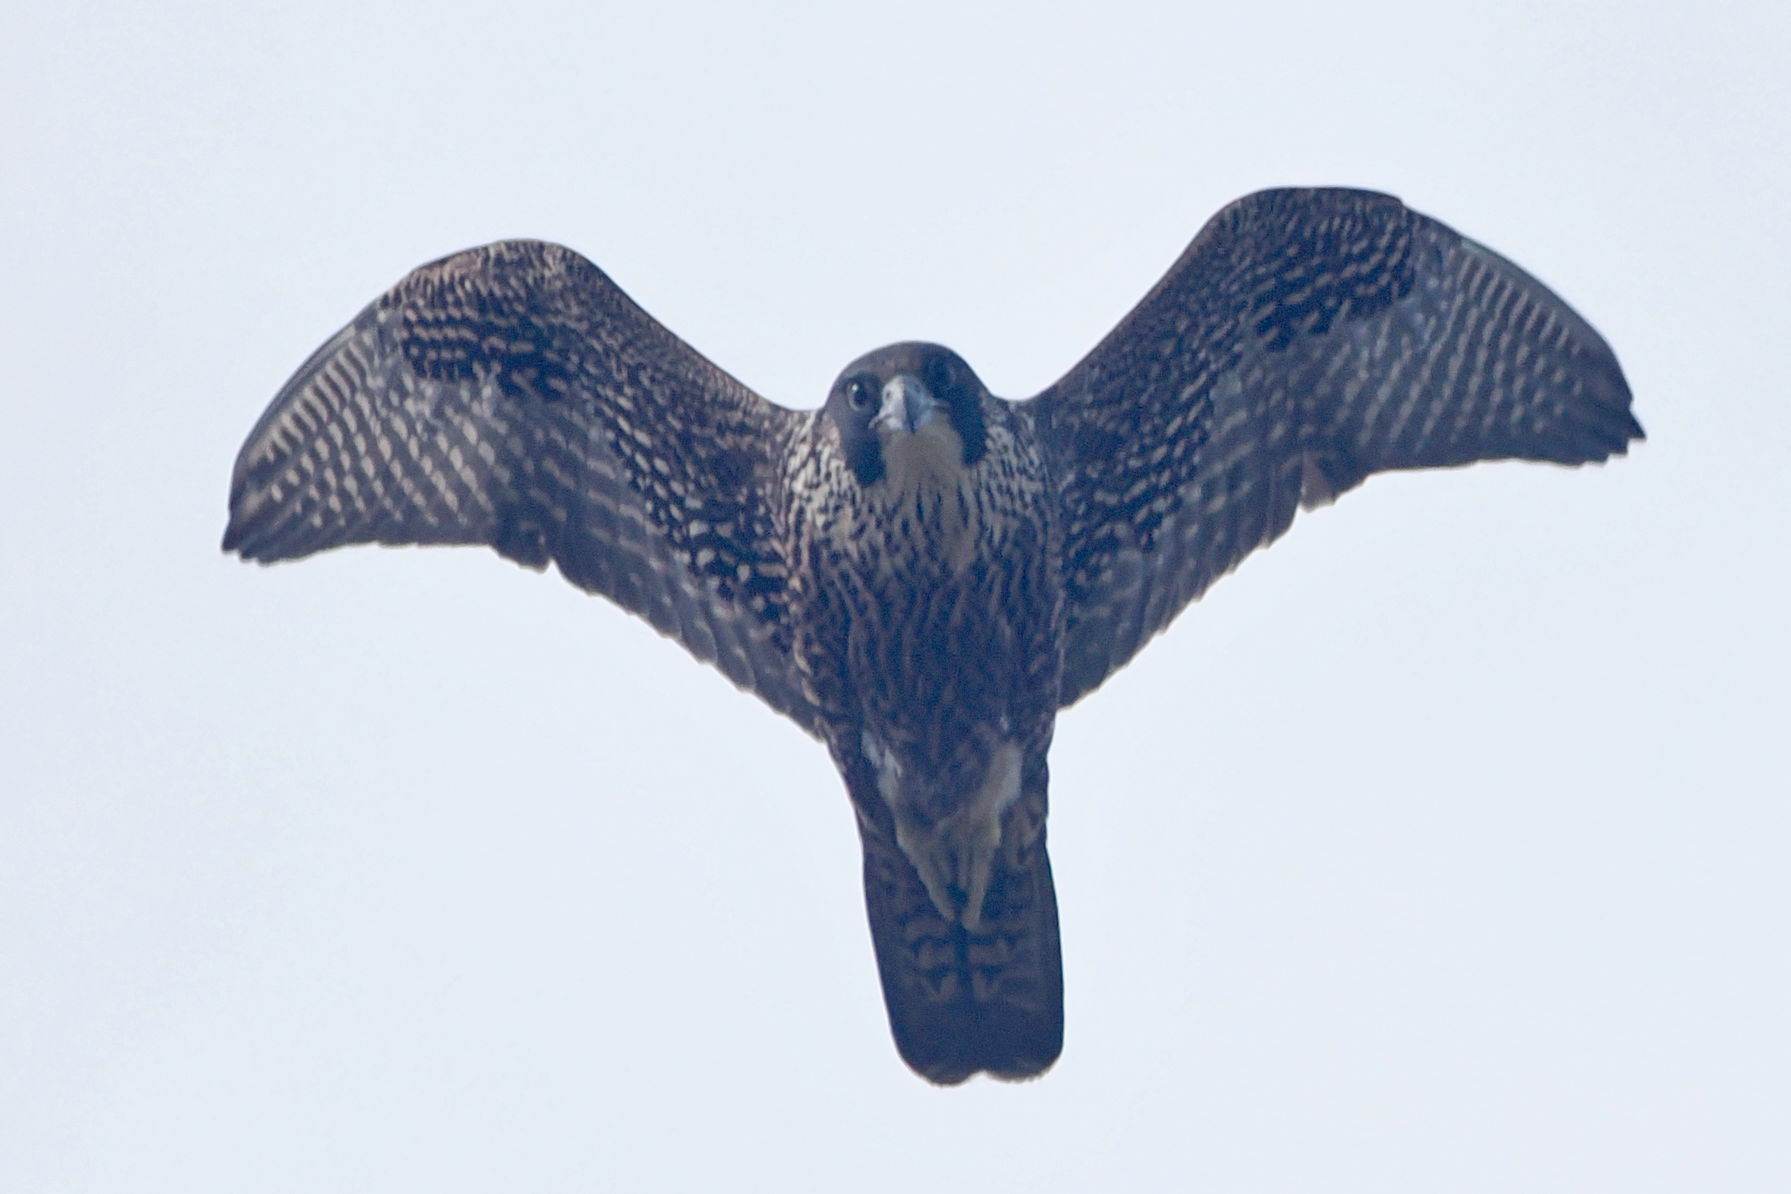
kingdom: Animalia
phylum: Chordata
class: Aves
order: Falconiformes
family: Falconidae
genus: Falco
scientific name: Falco peregrinus
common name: Peregrine falcon
